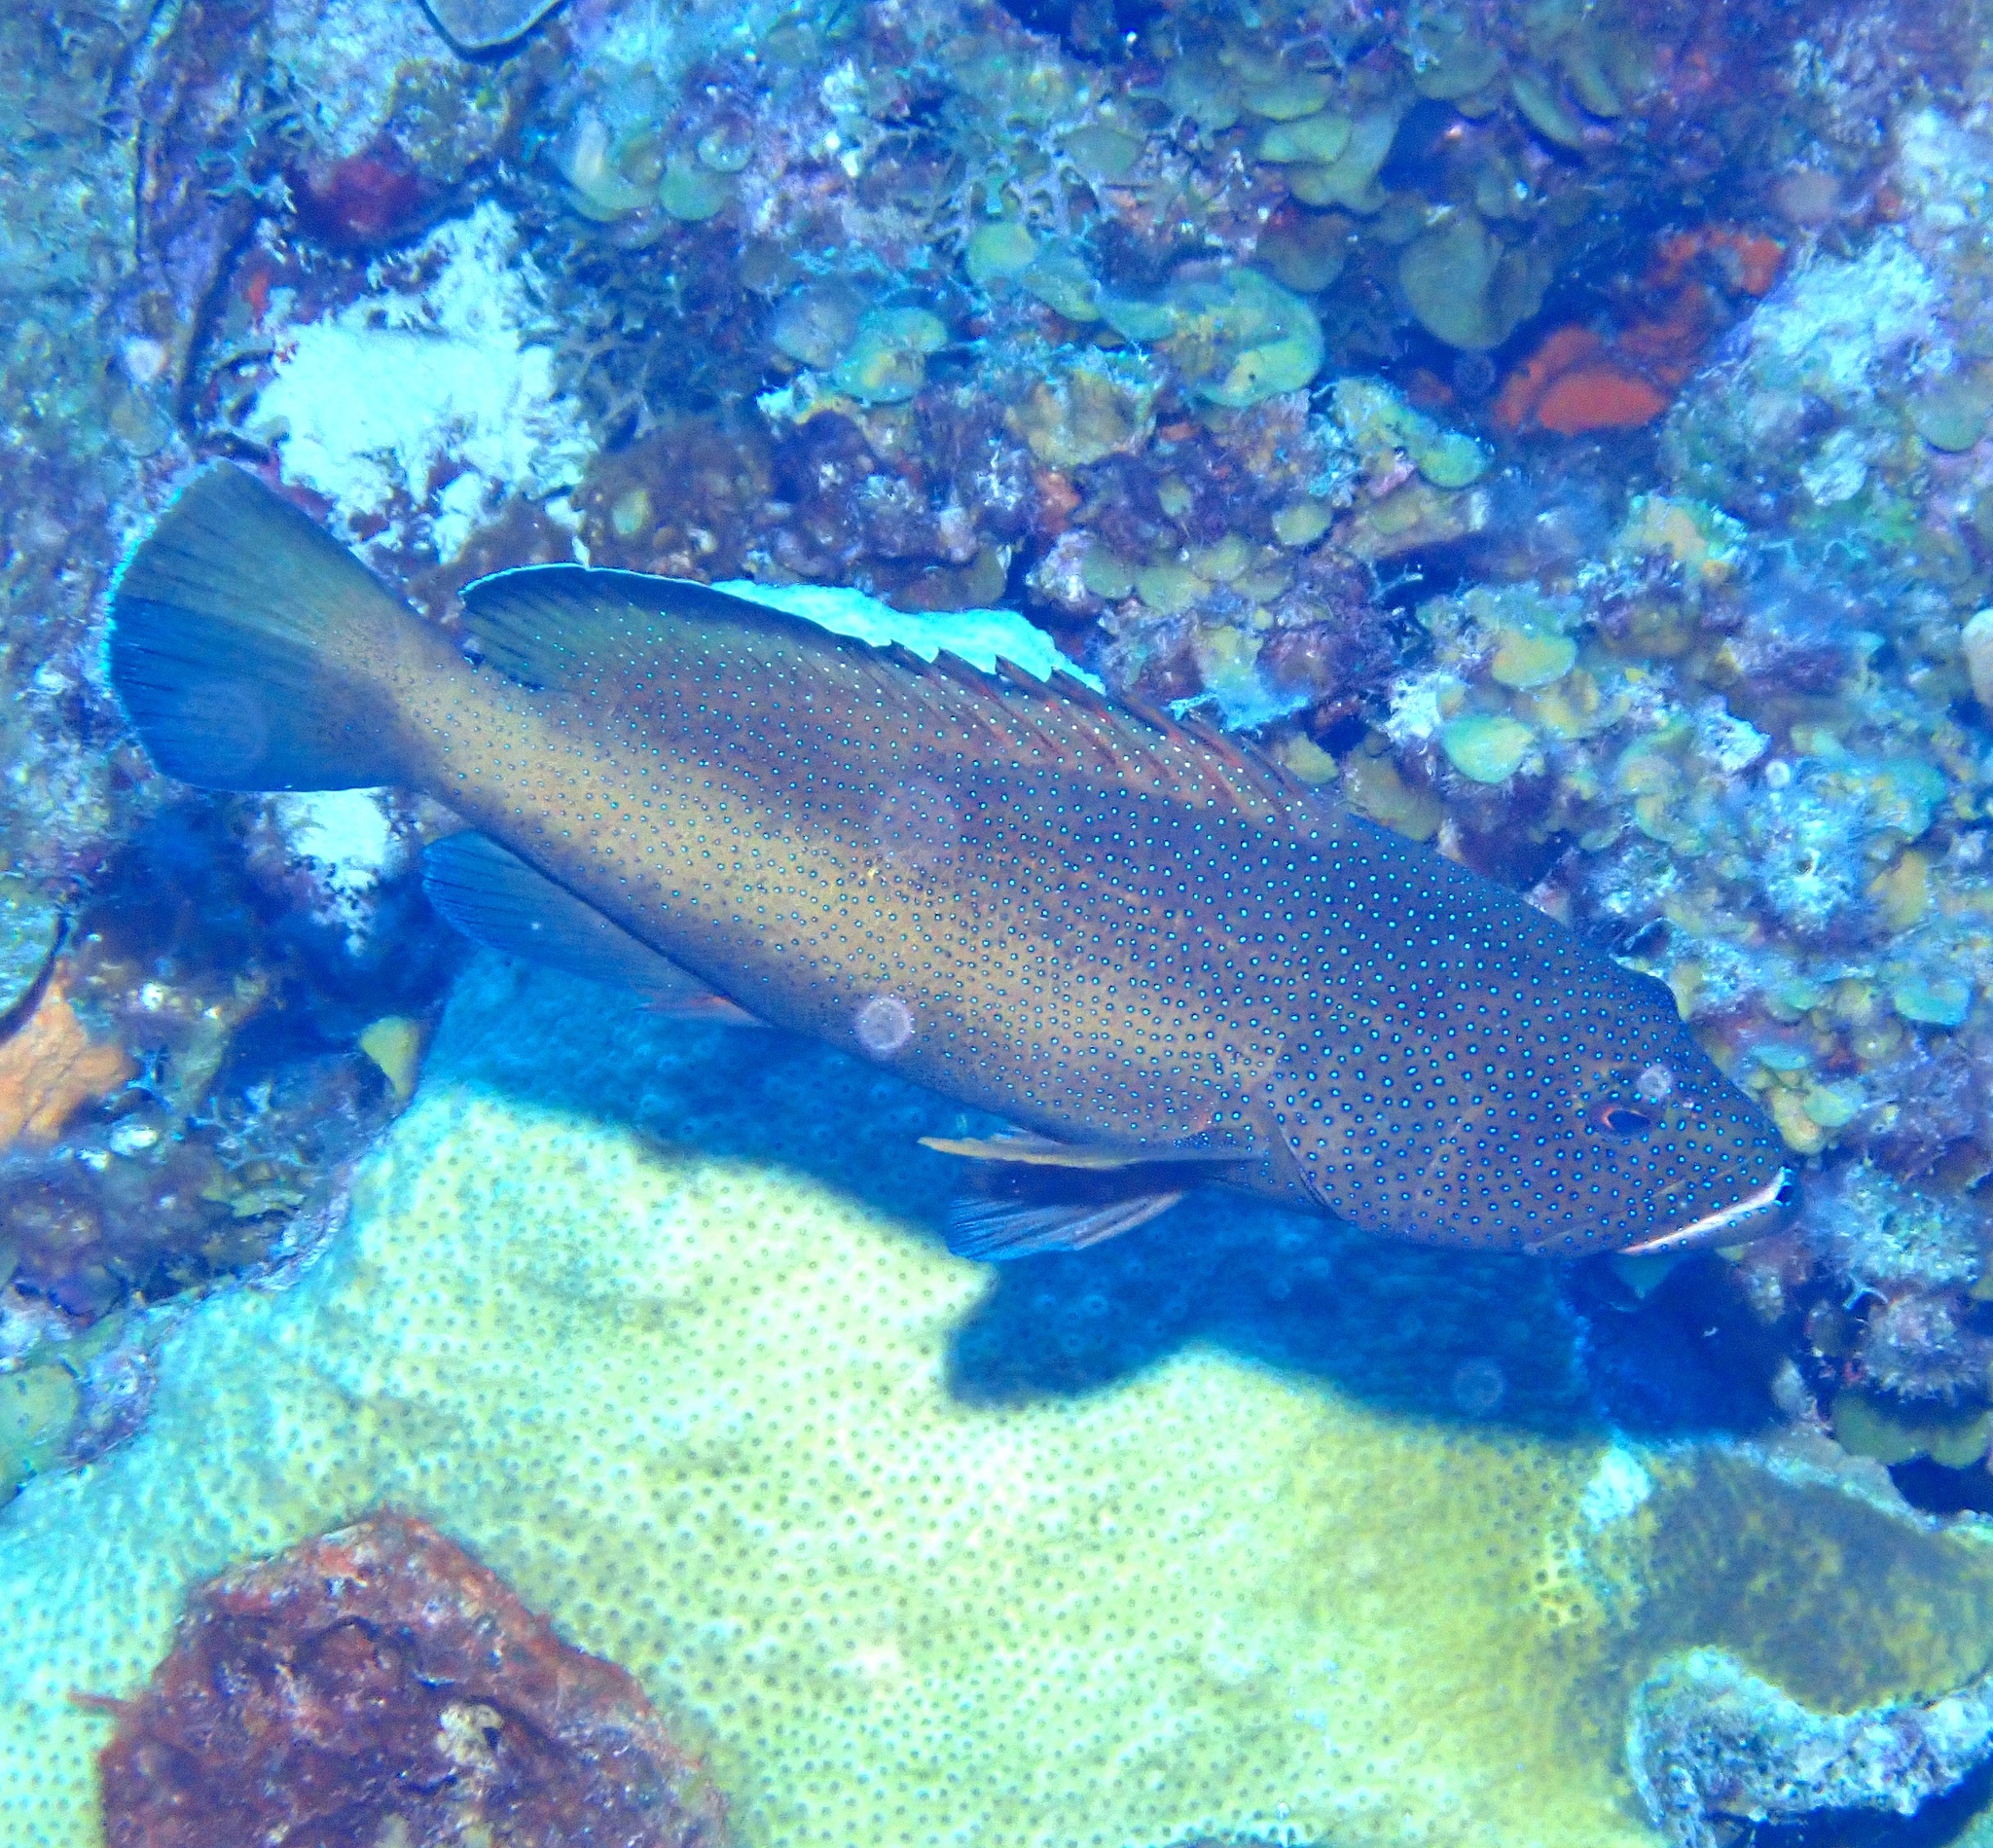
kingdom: Animalia
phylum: Chordata
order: Perciformes
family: Serranidae
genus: Cephalopholis
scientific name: Cephalopholis fulva
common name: Butterfish
